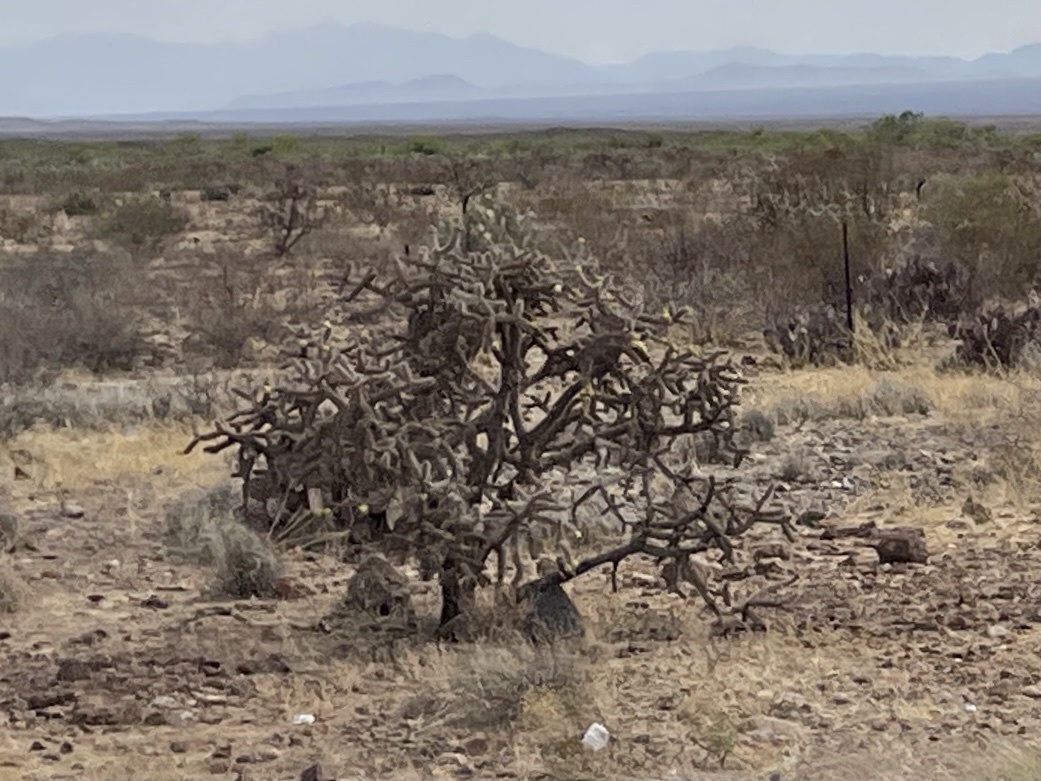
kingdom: Plantae
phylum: Tracheophyta
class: Magnoliopsida
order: Caryophyllales
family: Cactaceae
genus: Cylindropuntia
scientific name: Cylindropuntia imbricata
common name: Candelabrum cactus
